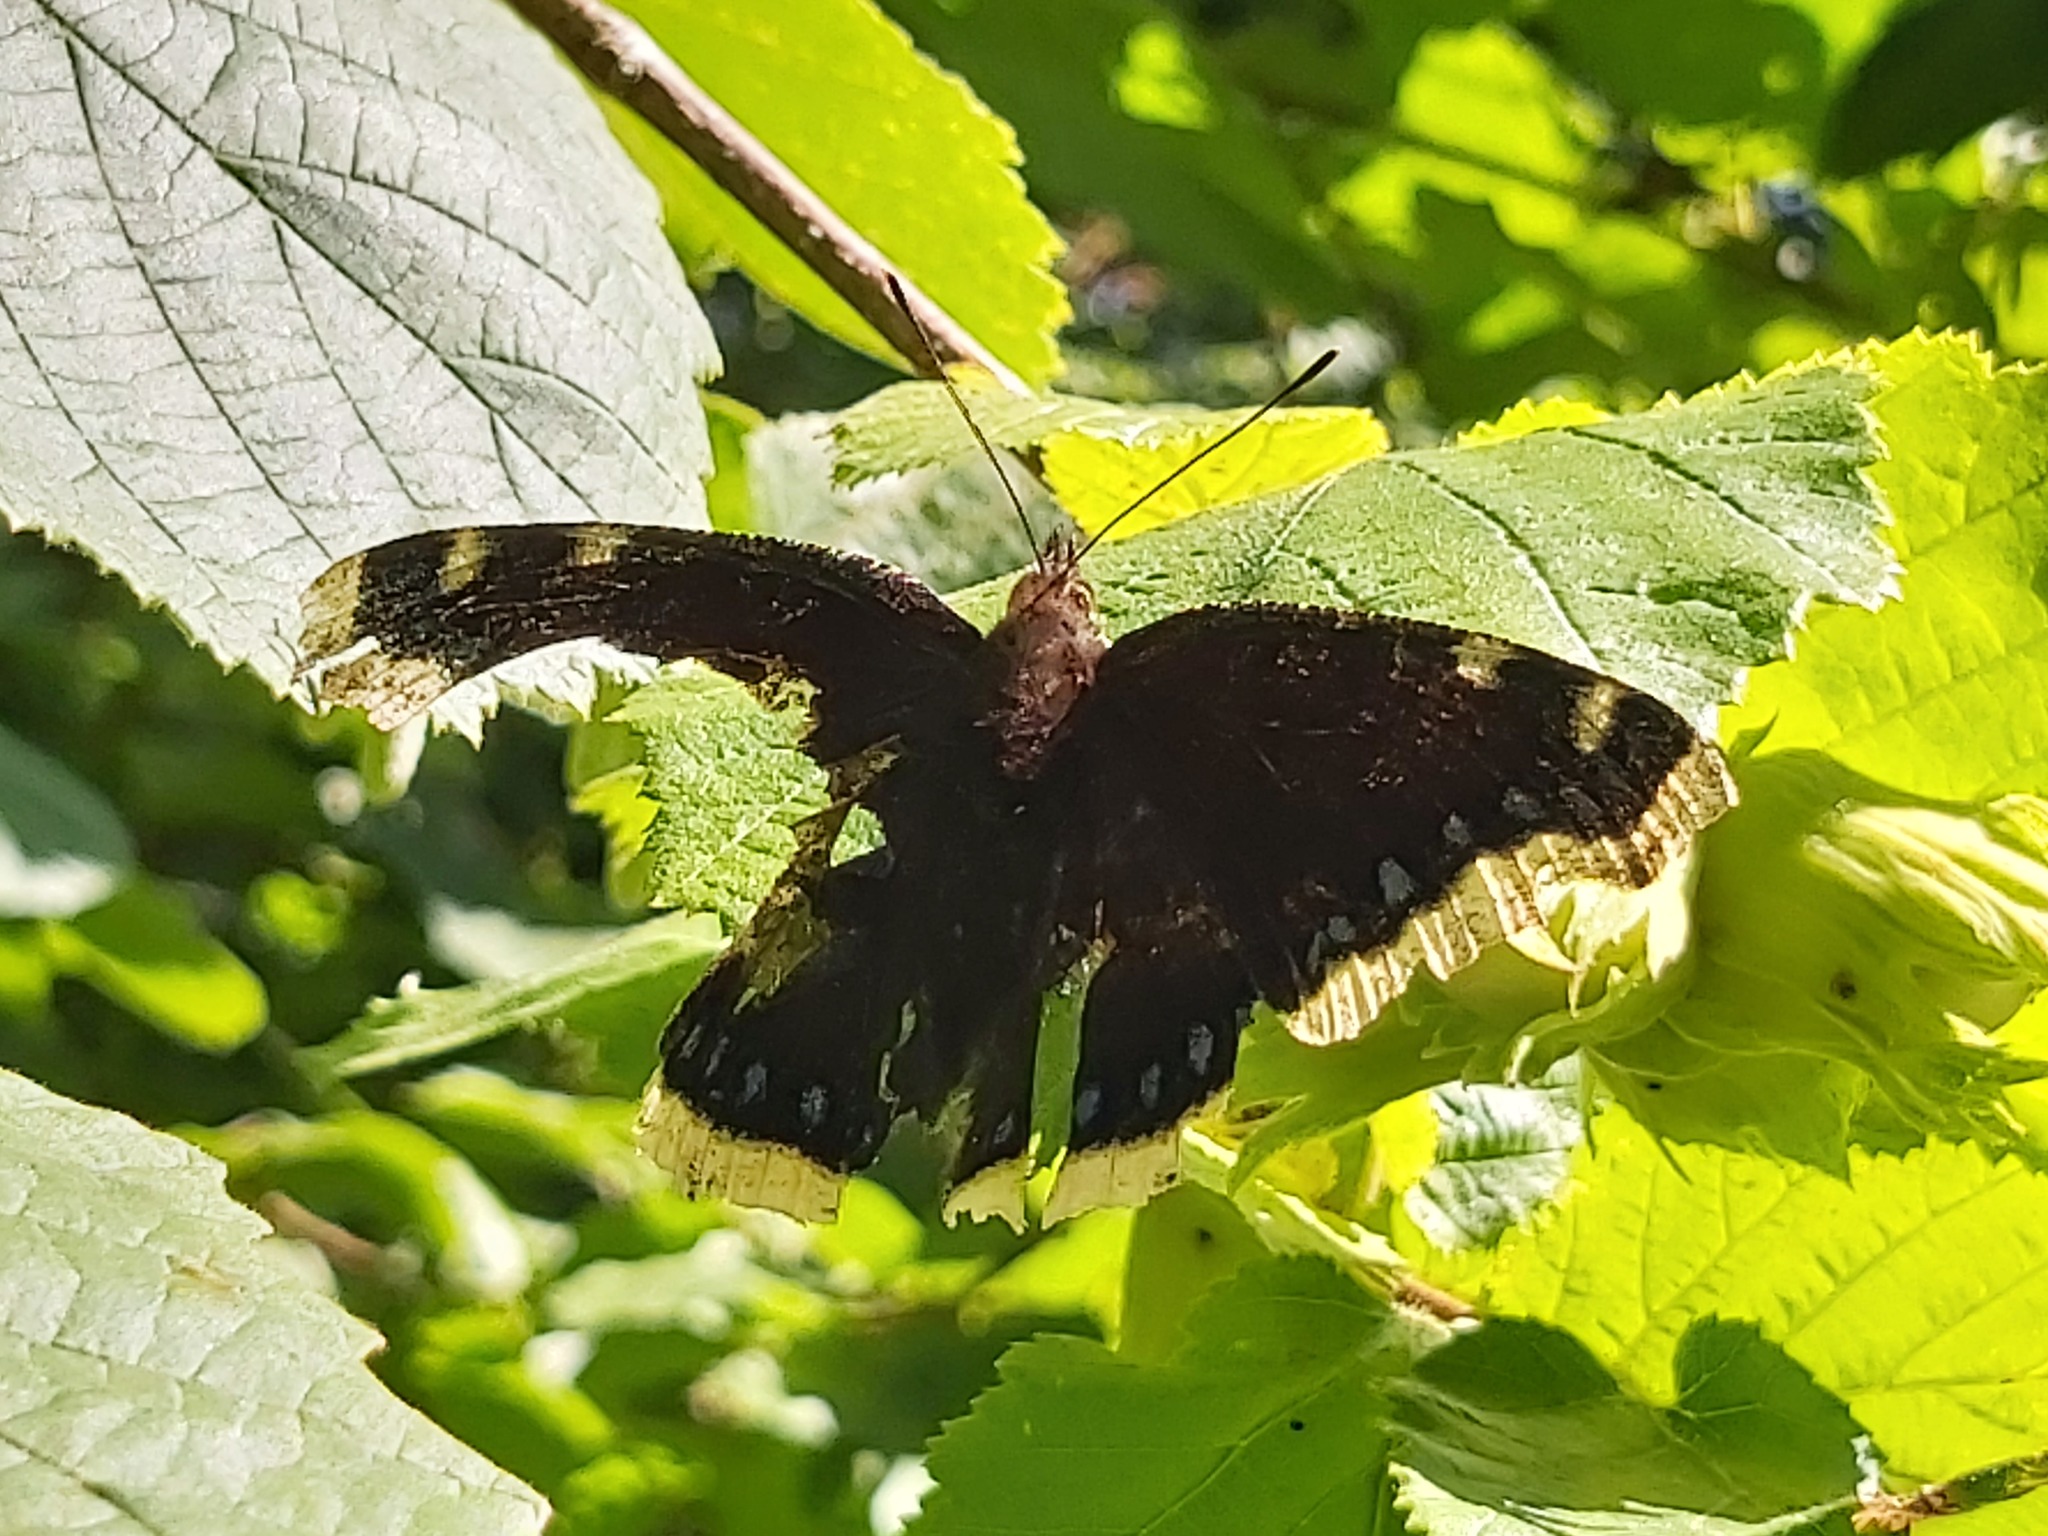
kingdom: Animalia
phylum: Arthropoda
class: Insecta
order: Lepidoptera
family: Nymphalidae
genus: Nymphalis
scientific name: Nymphalis antiopa
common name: Camberwell beauty
